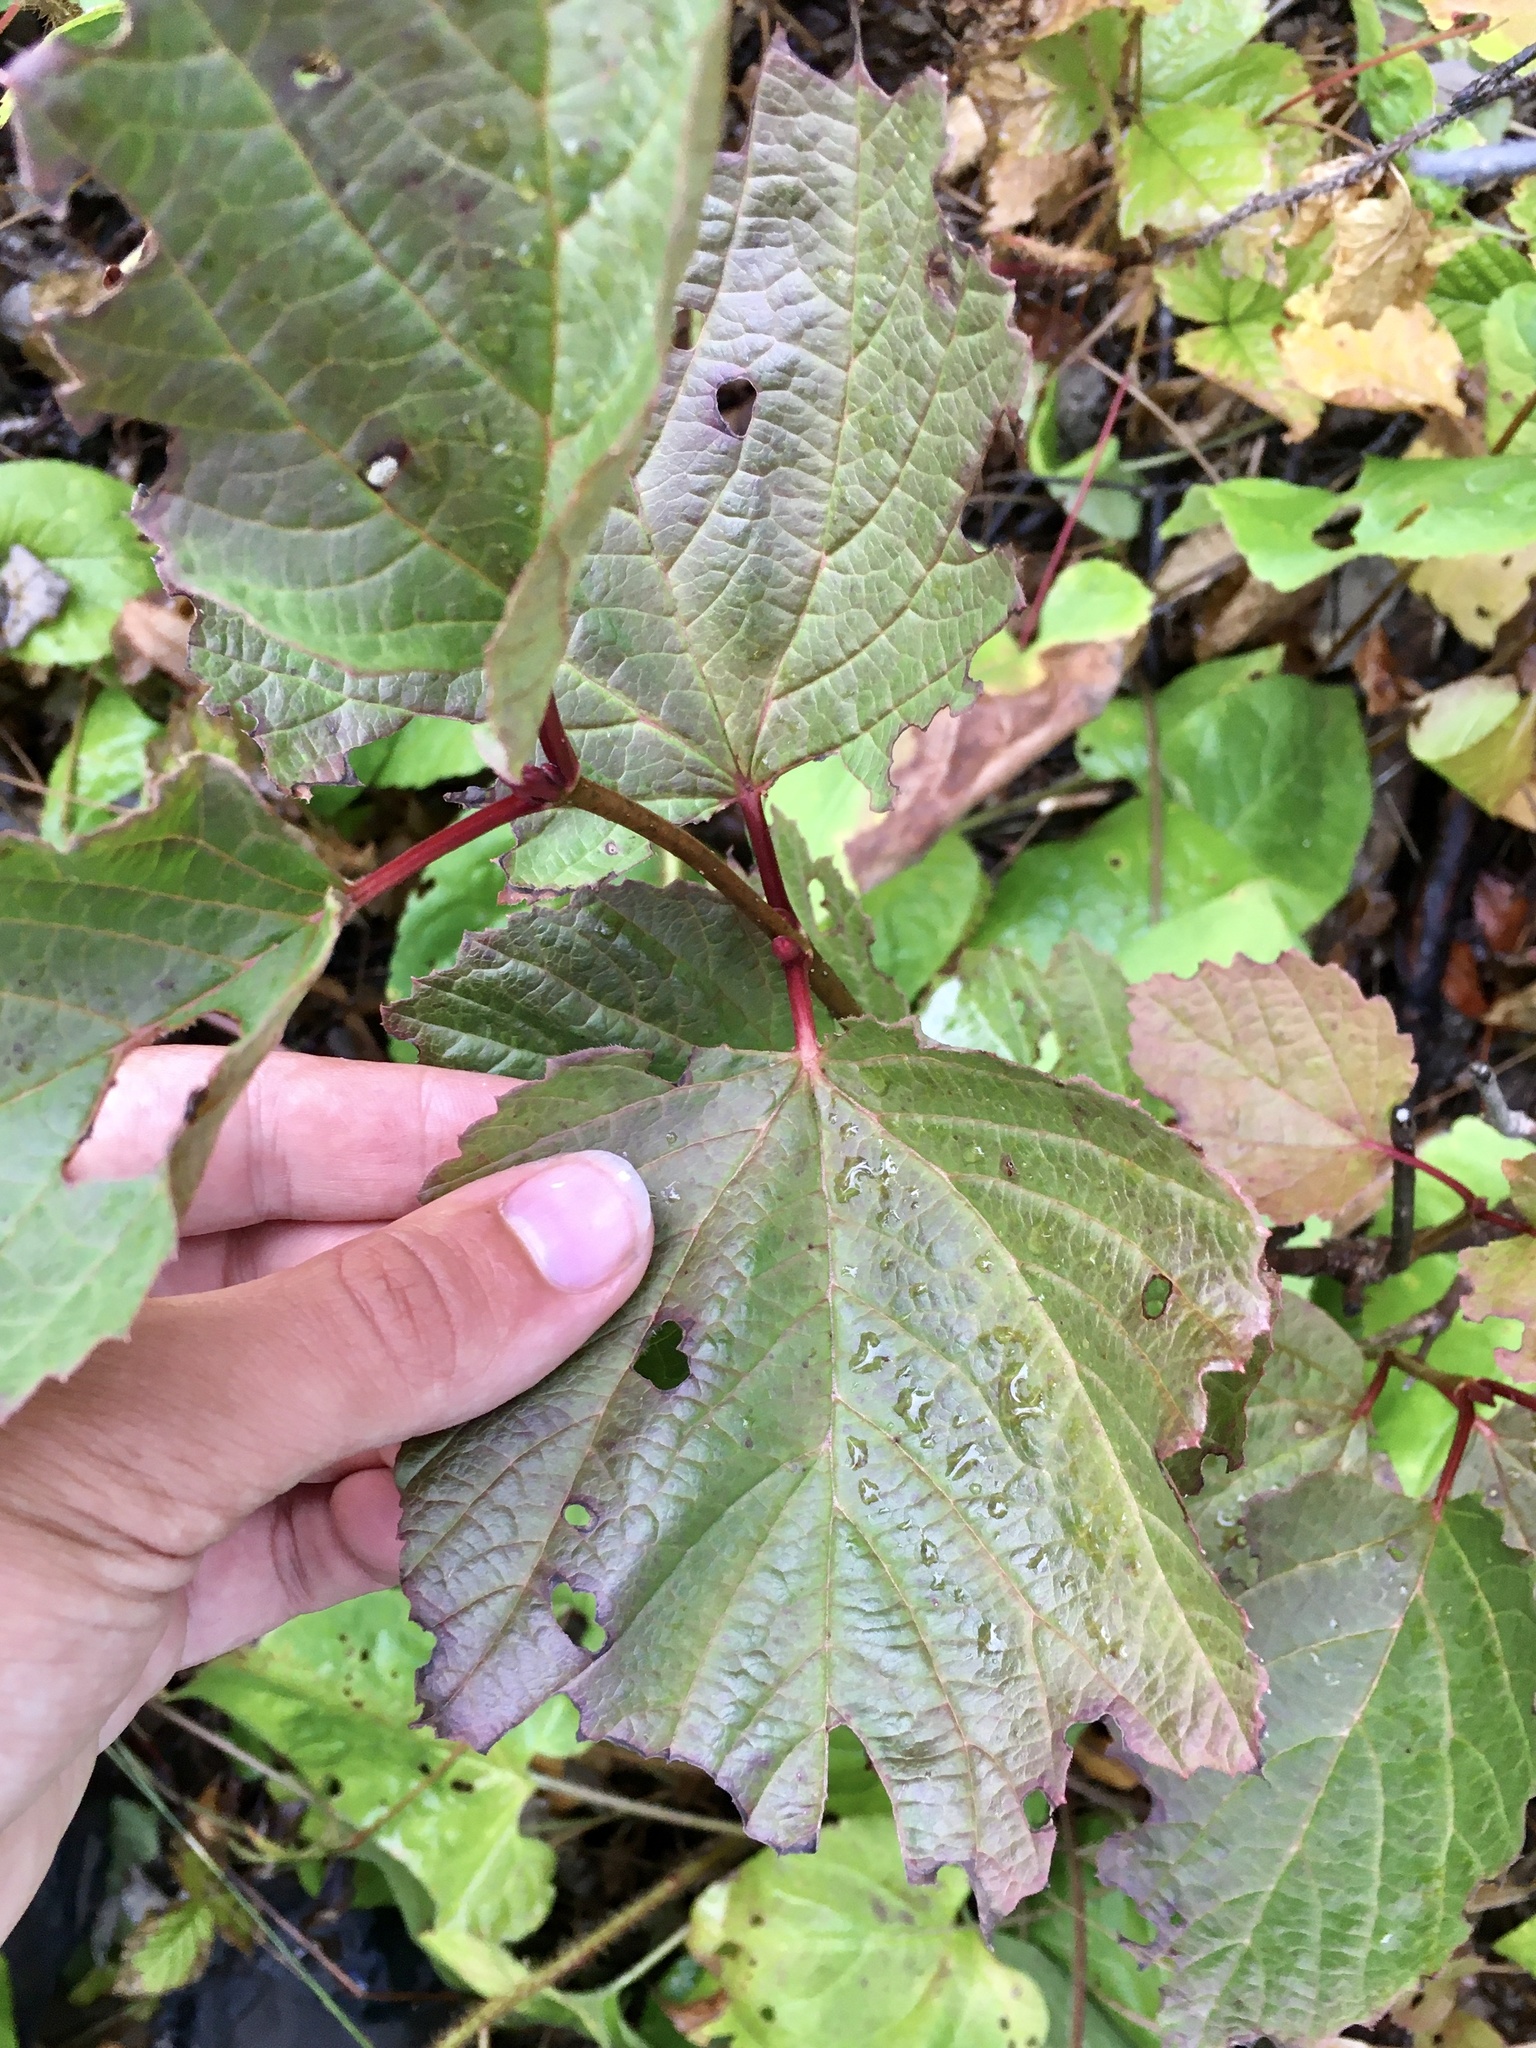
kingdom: Plantae
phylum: Tracheophyta
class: Magnoliopsida
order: Dipsacales
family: Viburnaceae
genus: Viburnum
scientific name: Viburnum edule
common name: Mooseberry
